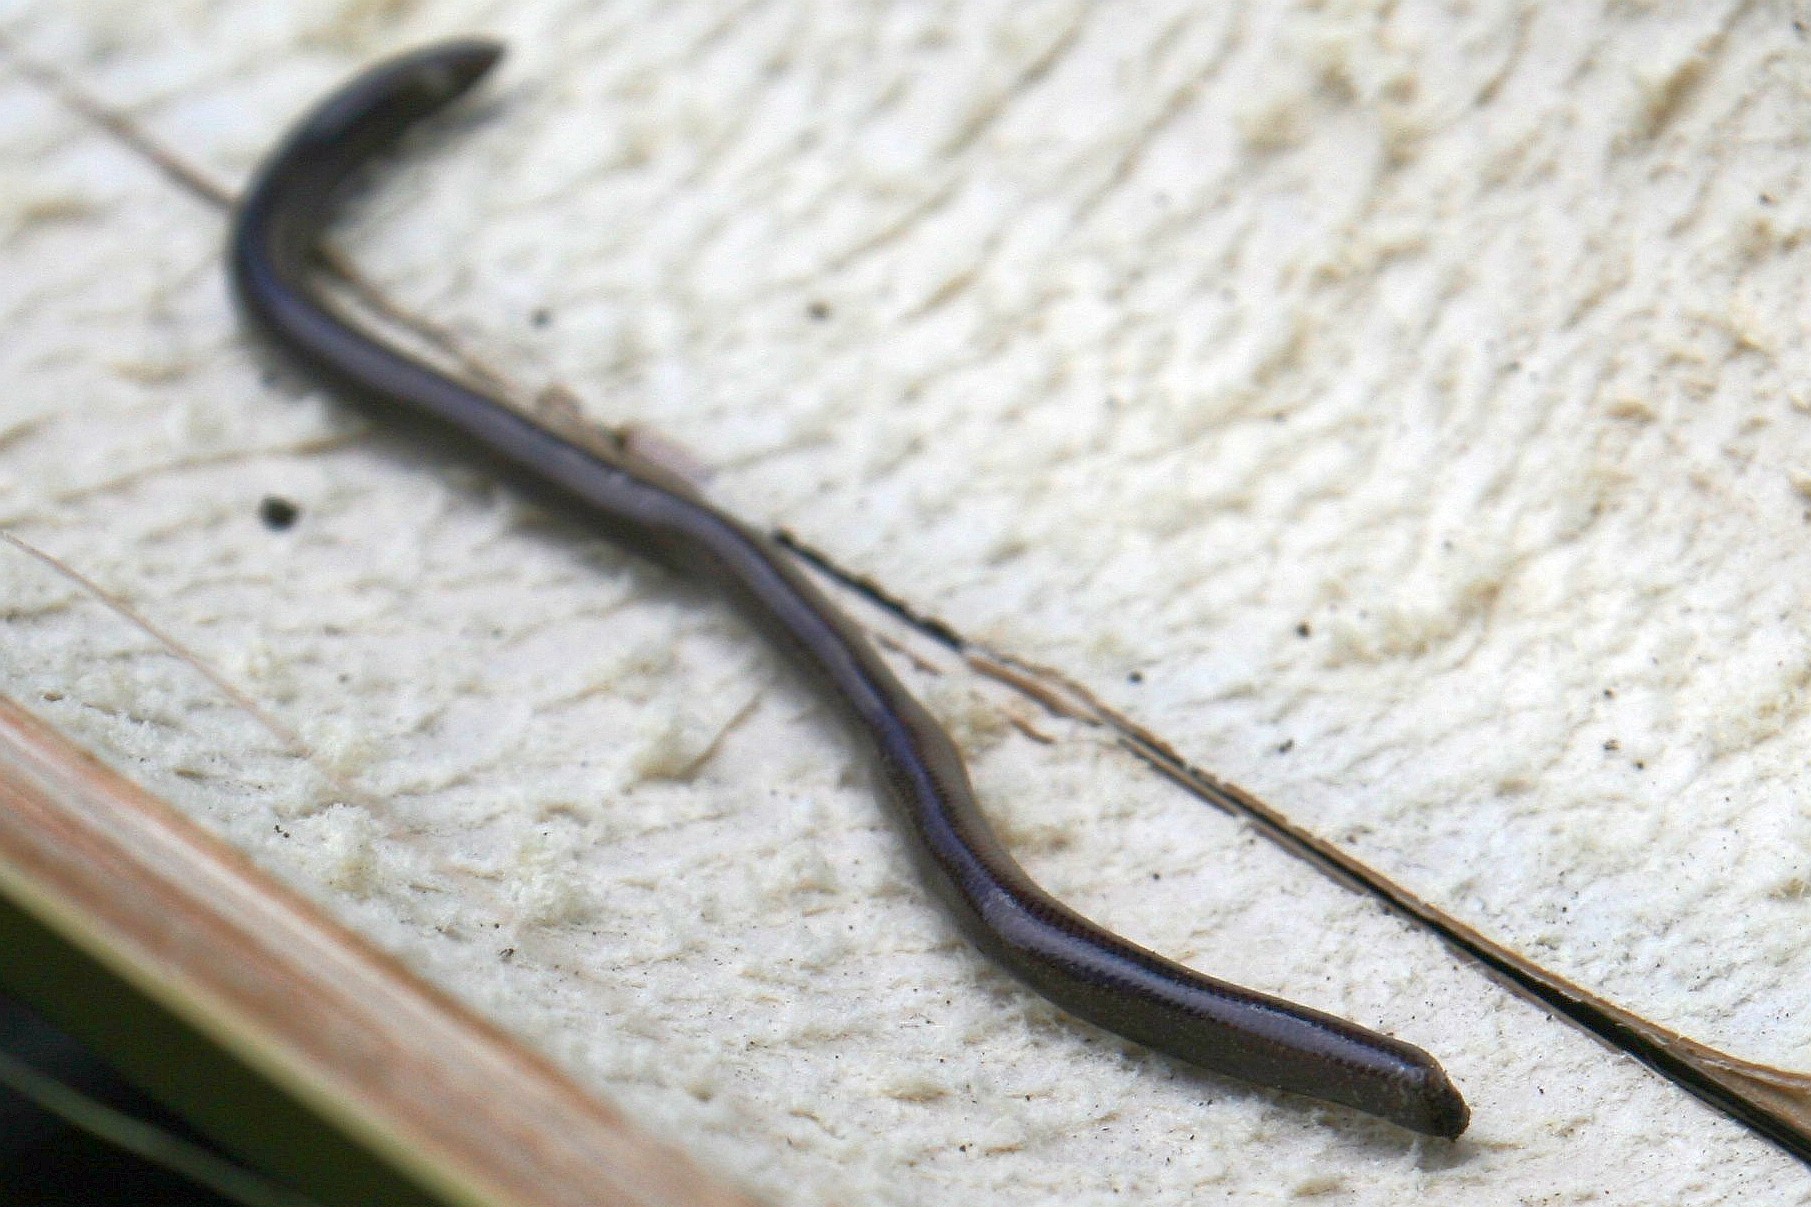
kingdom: Animalia
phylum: Chordata
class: Squamata
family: Typhlopidae
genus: Indotyphlops
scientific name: Indotyphlops braminus
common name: Brahminy blindsnake
